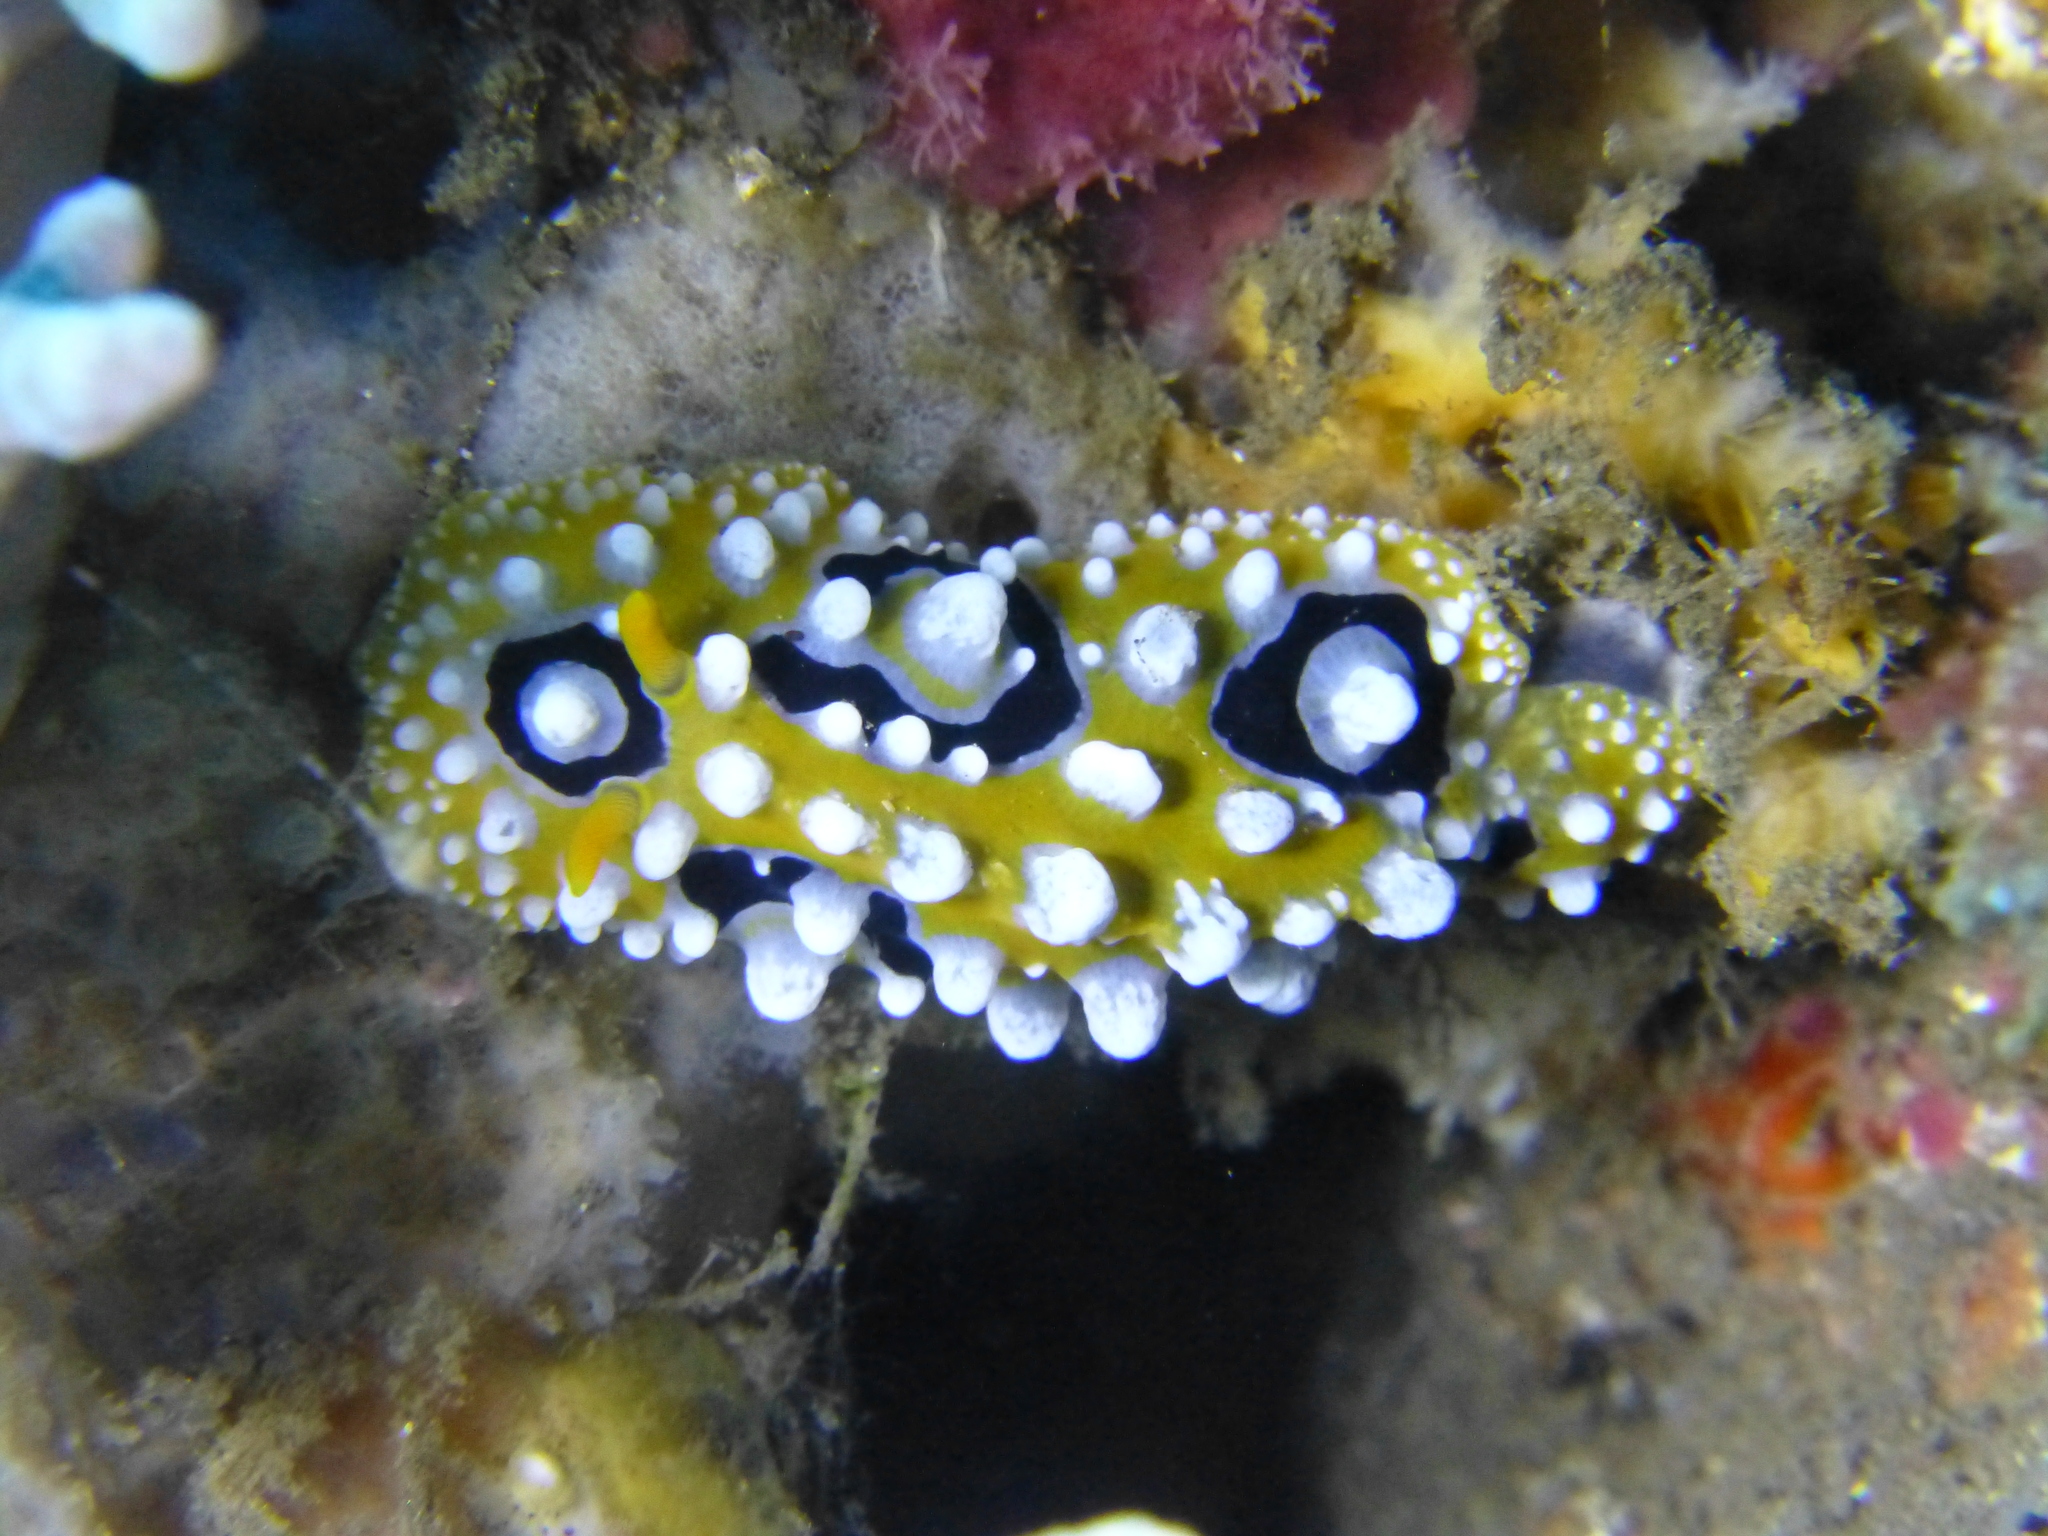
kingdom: Animalia
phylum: Mollusca
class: Gastropoda
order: Nudibranchia
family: Phyllidiidae
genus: Phyllidia
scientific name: Phyllidia ocellata
